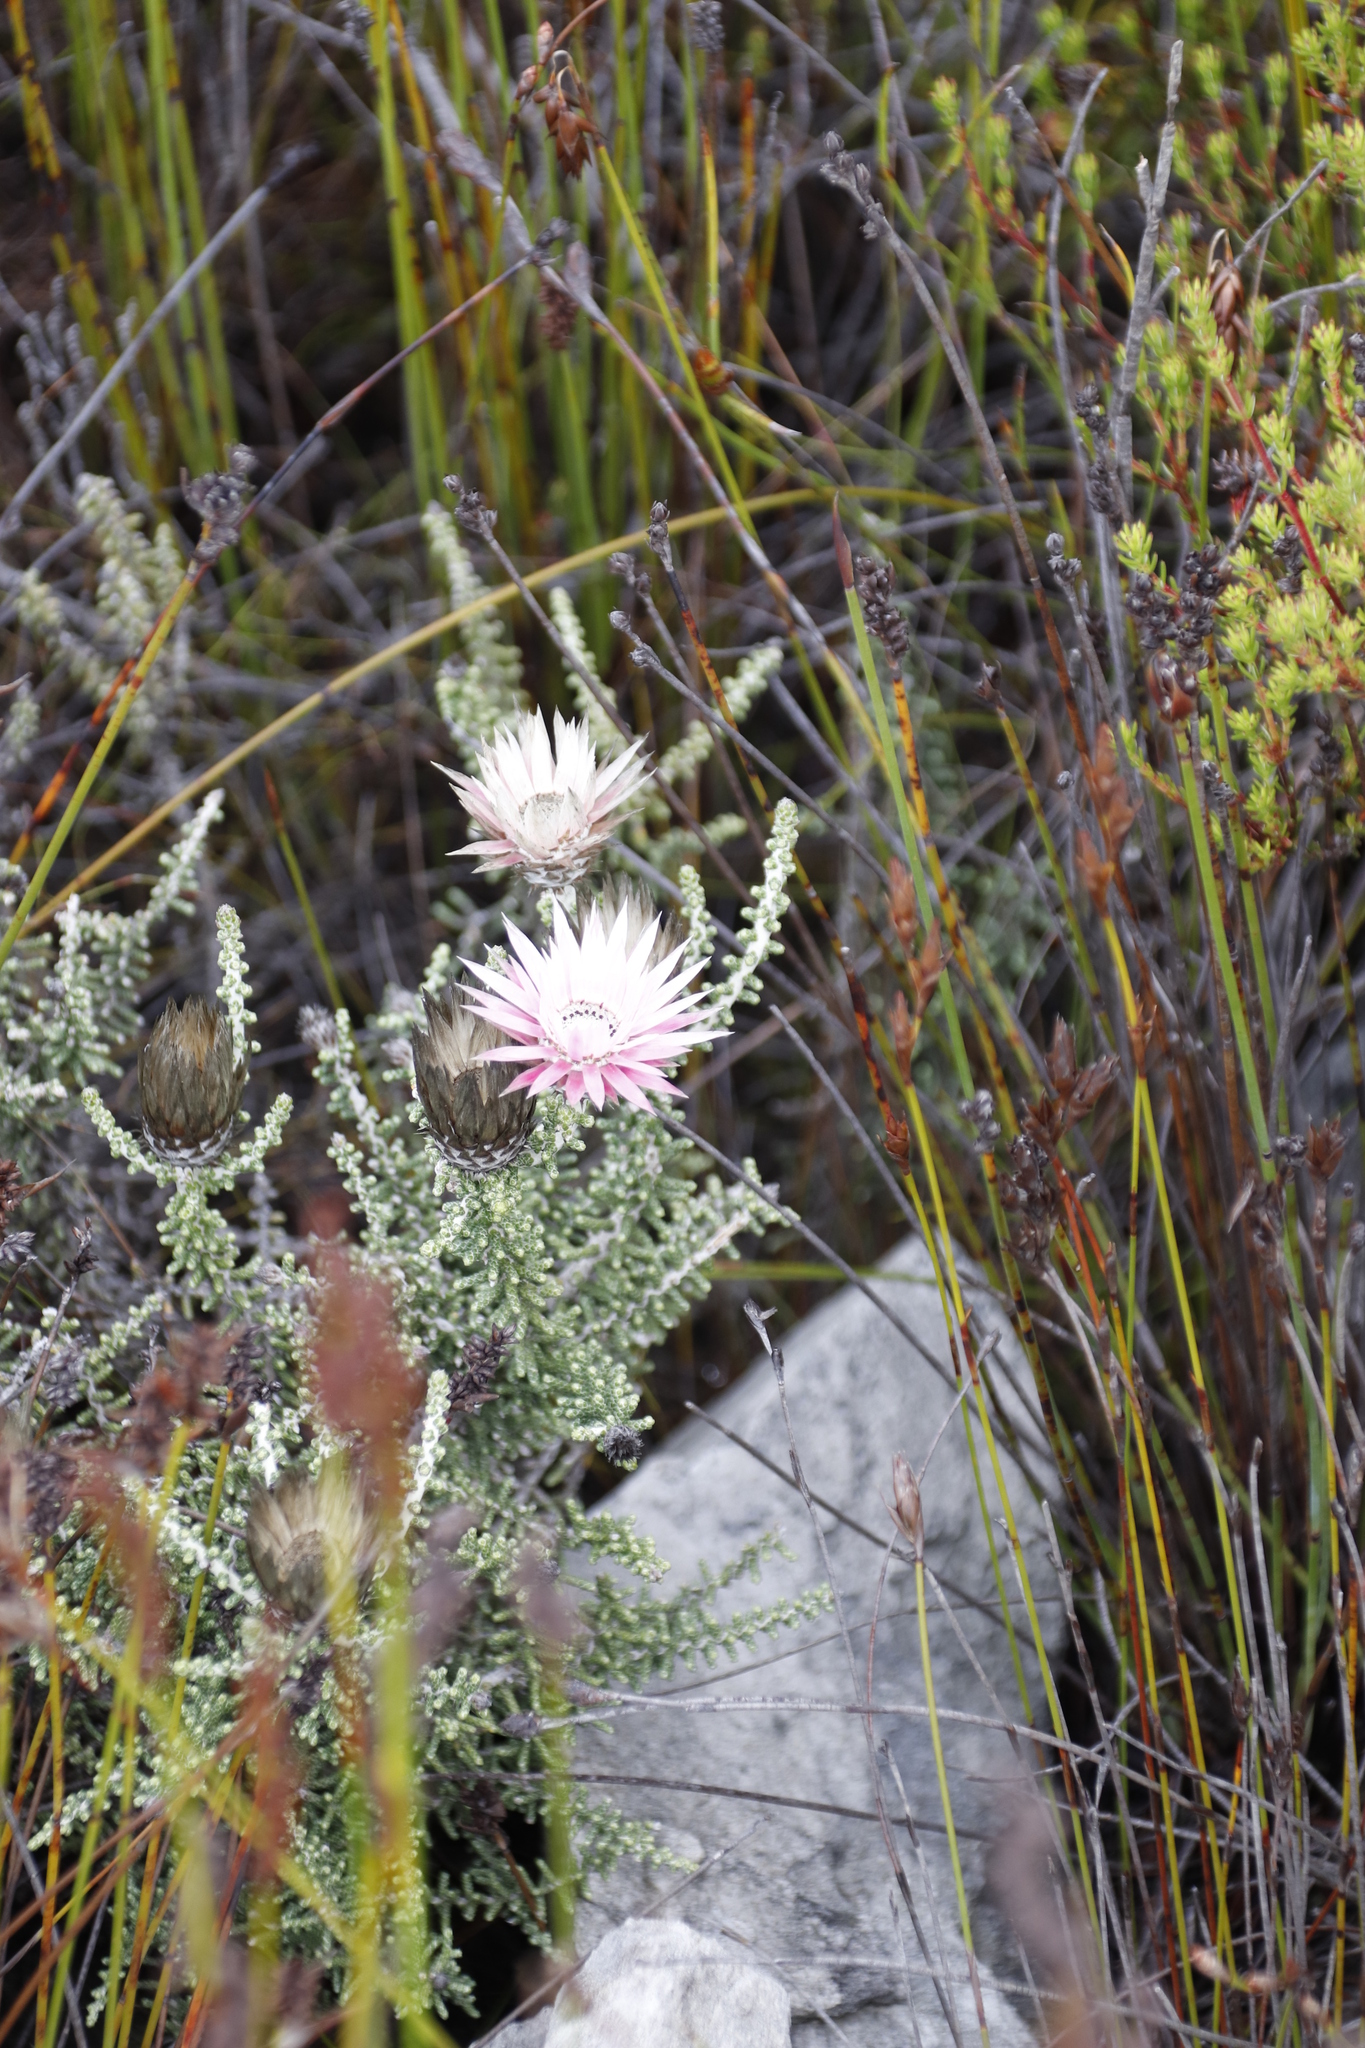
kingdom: Plantae
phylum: Tracheophyta
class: Magnoliopsida
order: Asterales
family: Asteraceae
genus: Phaenocoma
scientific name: Phaenocoma prolifera
